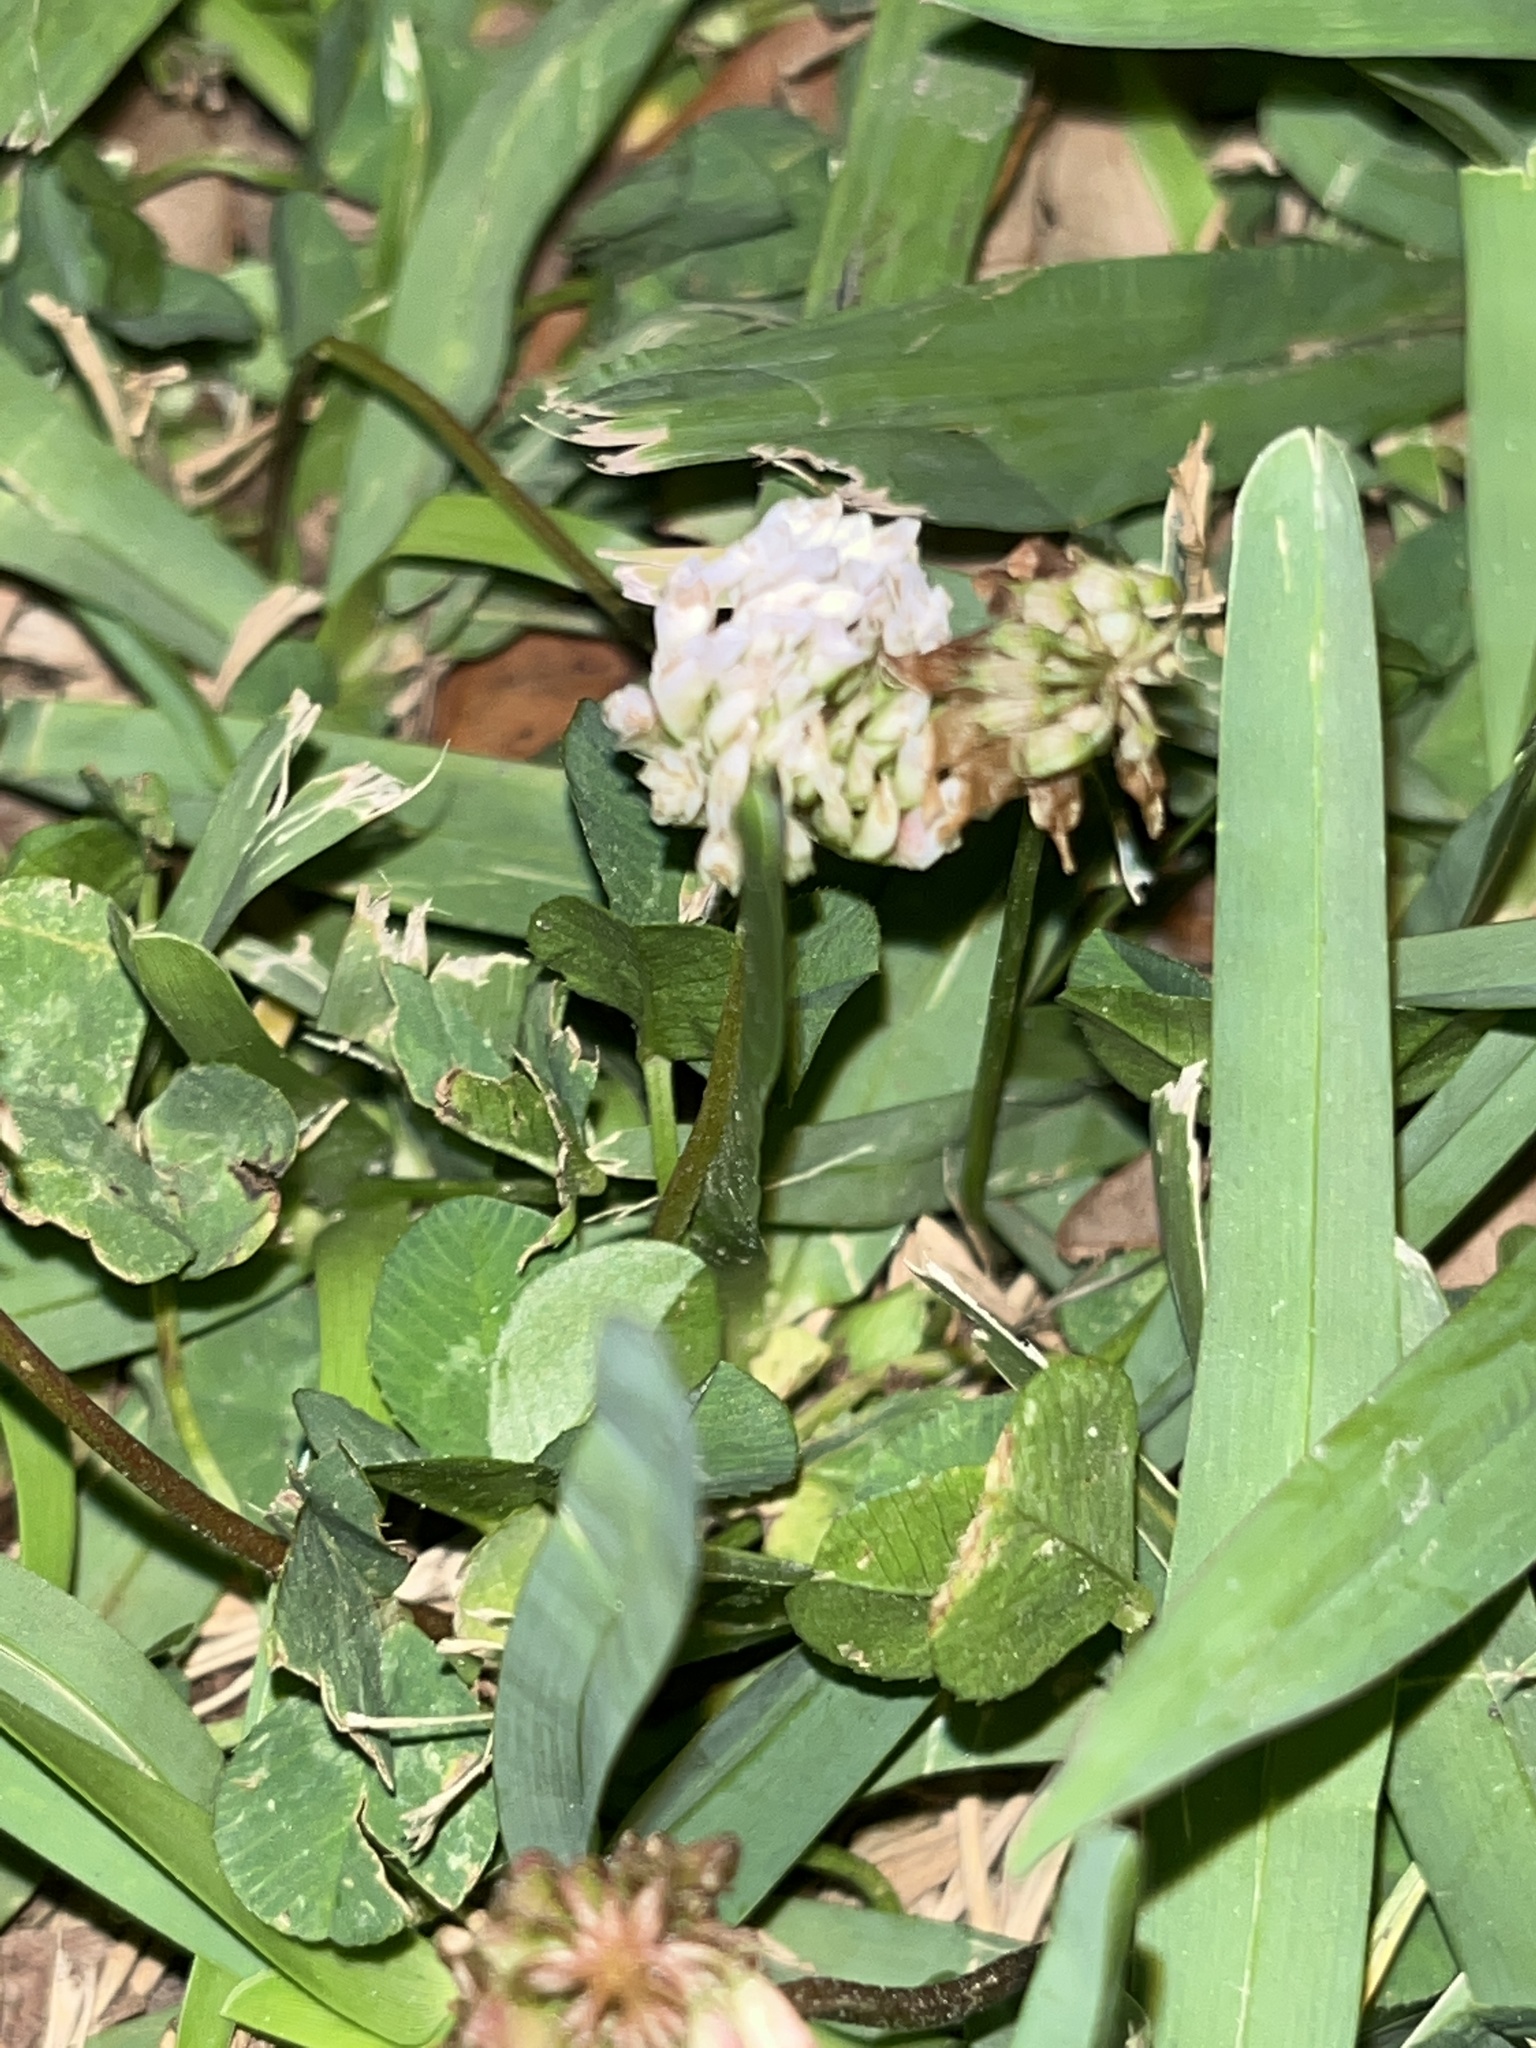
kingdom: Plantae
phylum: Tracheophyta
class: Magnoliopsida
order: Fabales
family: Fabaceae
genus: Trifolium
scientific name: Trifolium repens
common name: White clover
